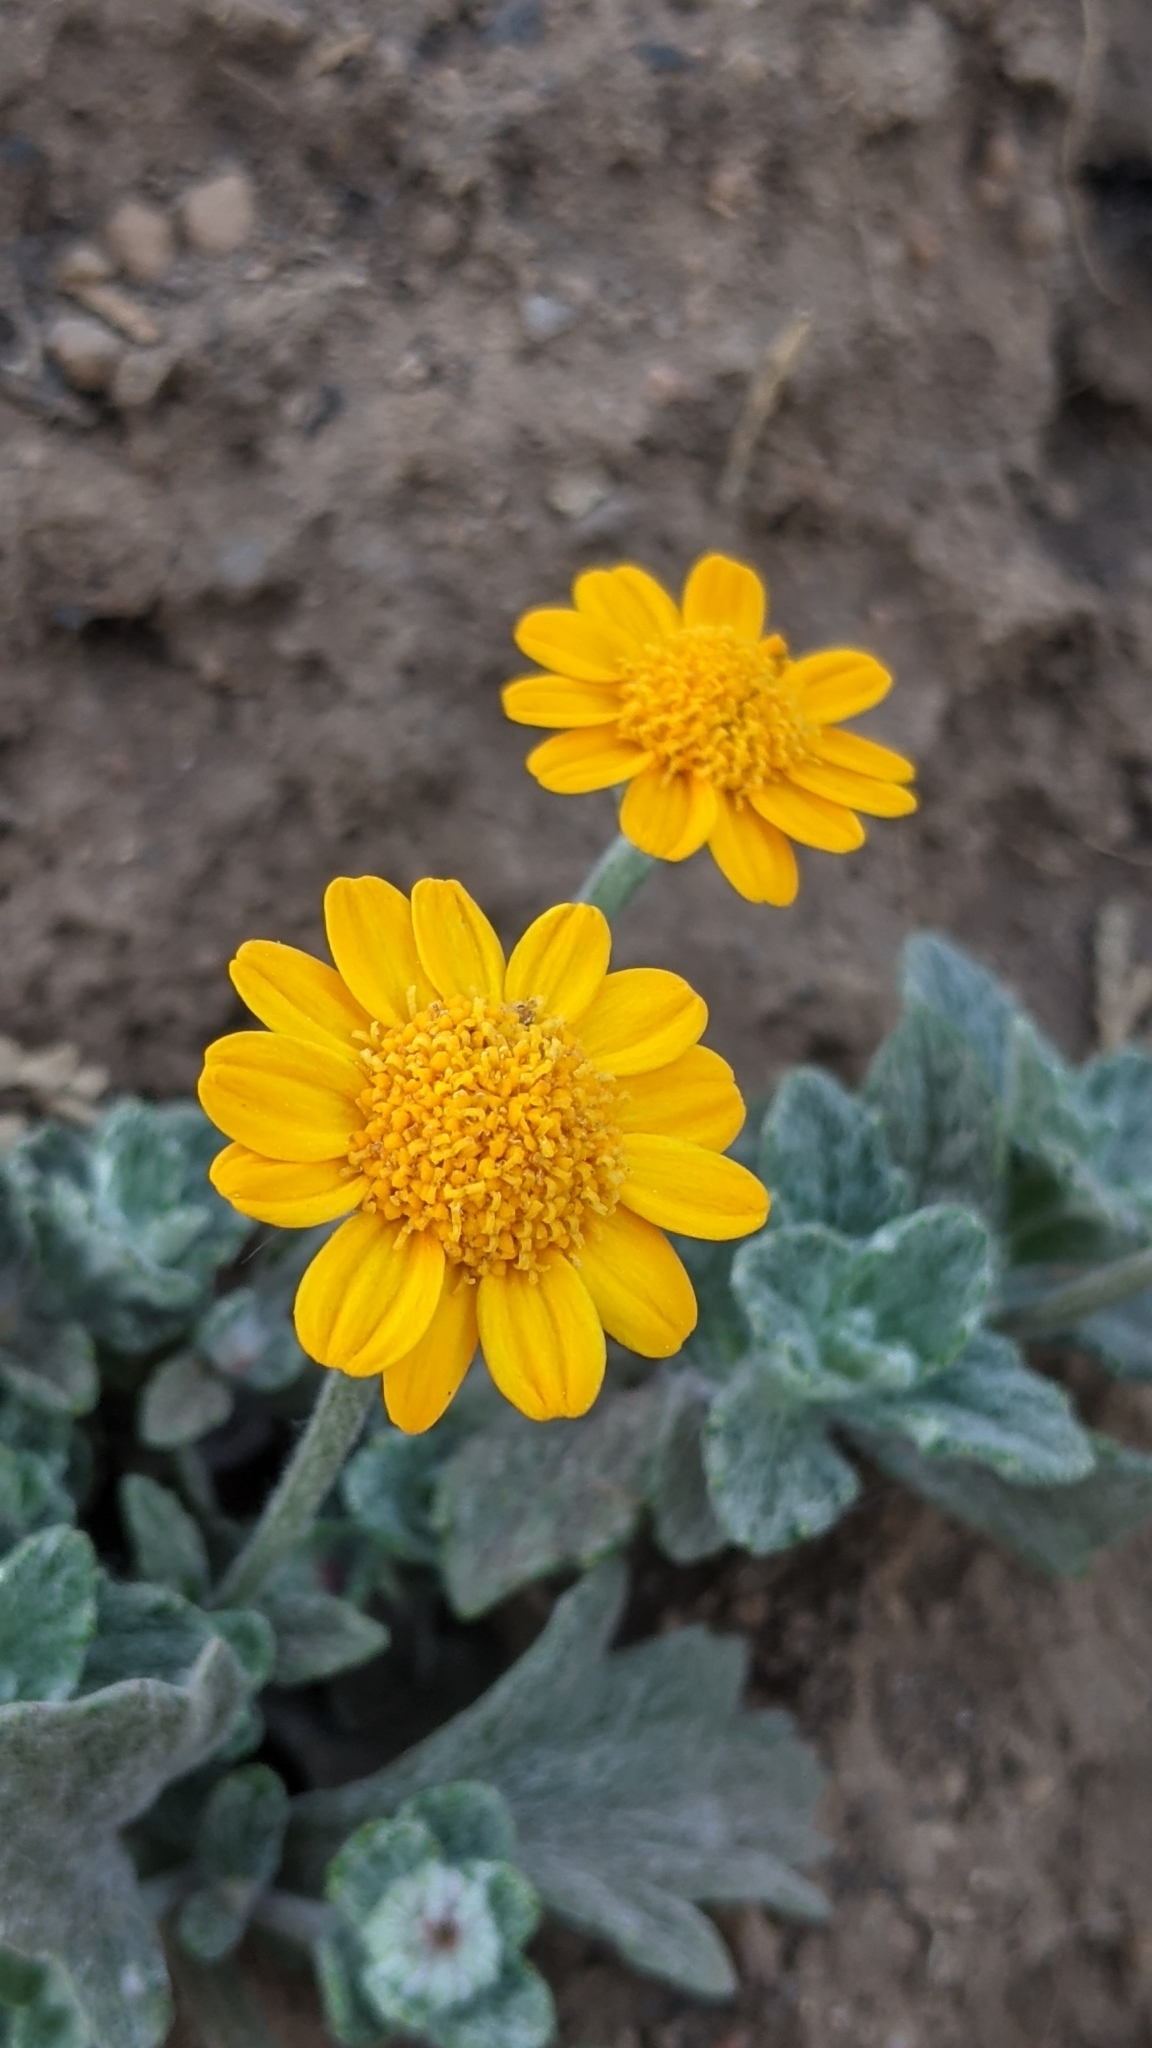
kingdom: Plantae
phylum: Tracheophyta
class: Magnoliopsida
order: Asterales
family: Asteraceae
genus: Eriophyllum
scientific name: Eriophyllum lanatum
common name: Common woolly-sunflower
